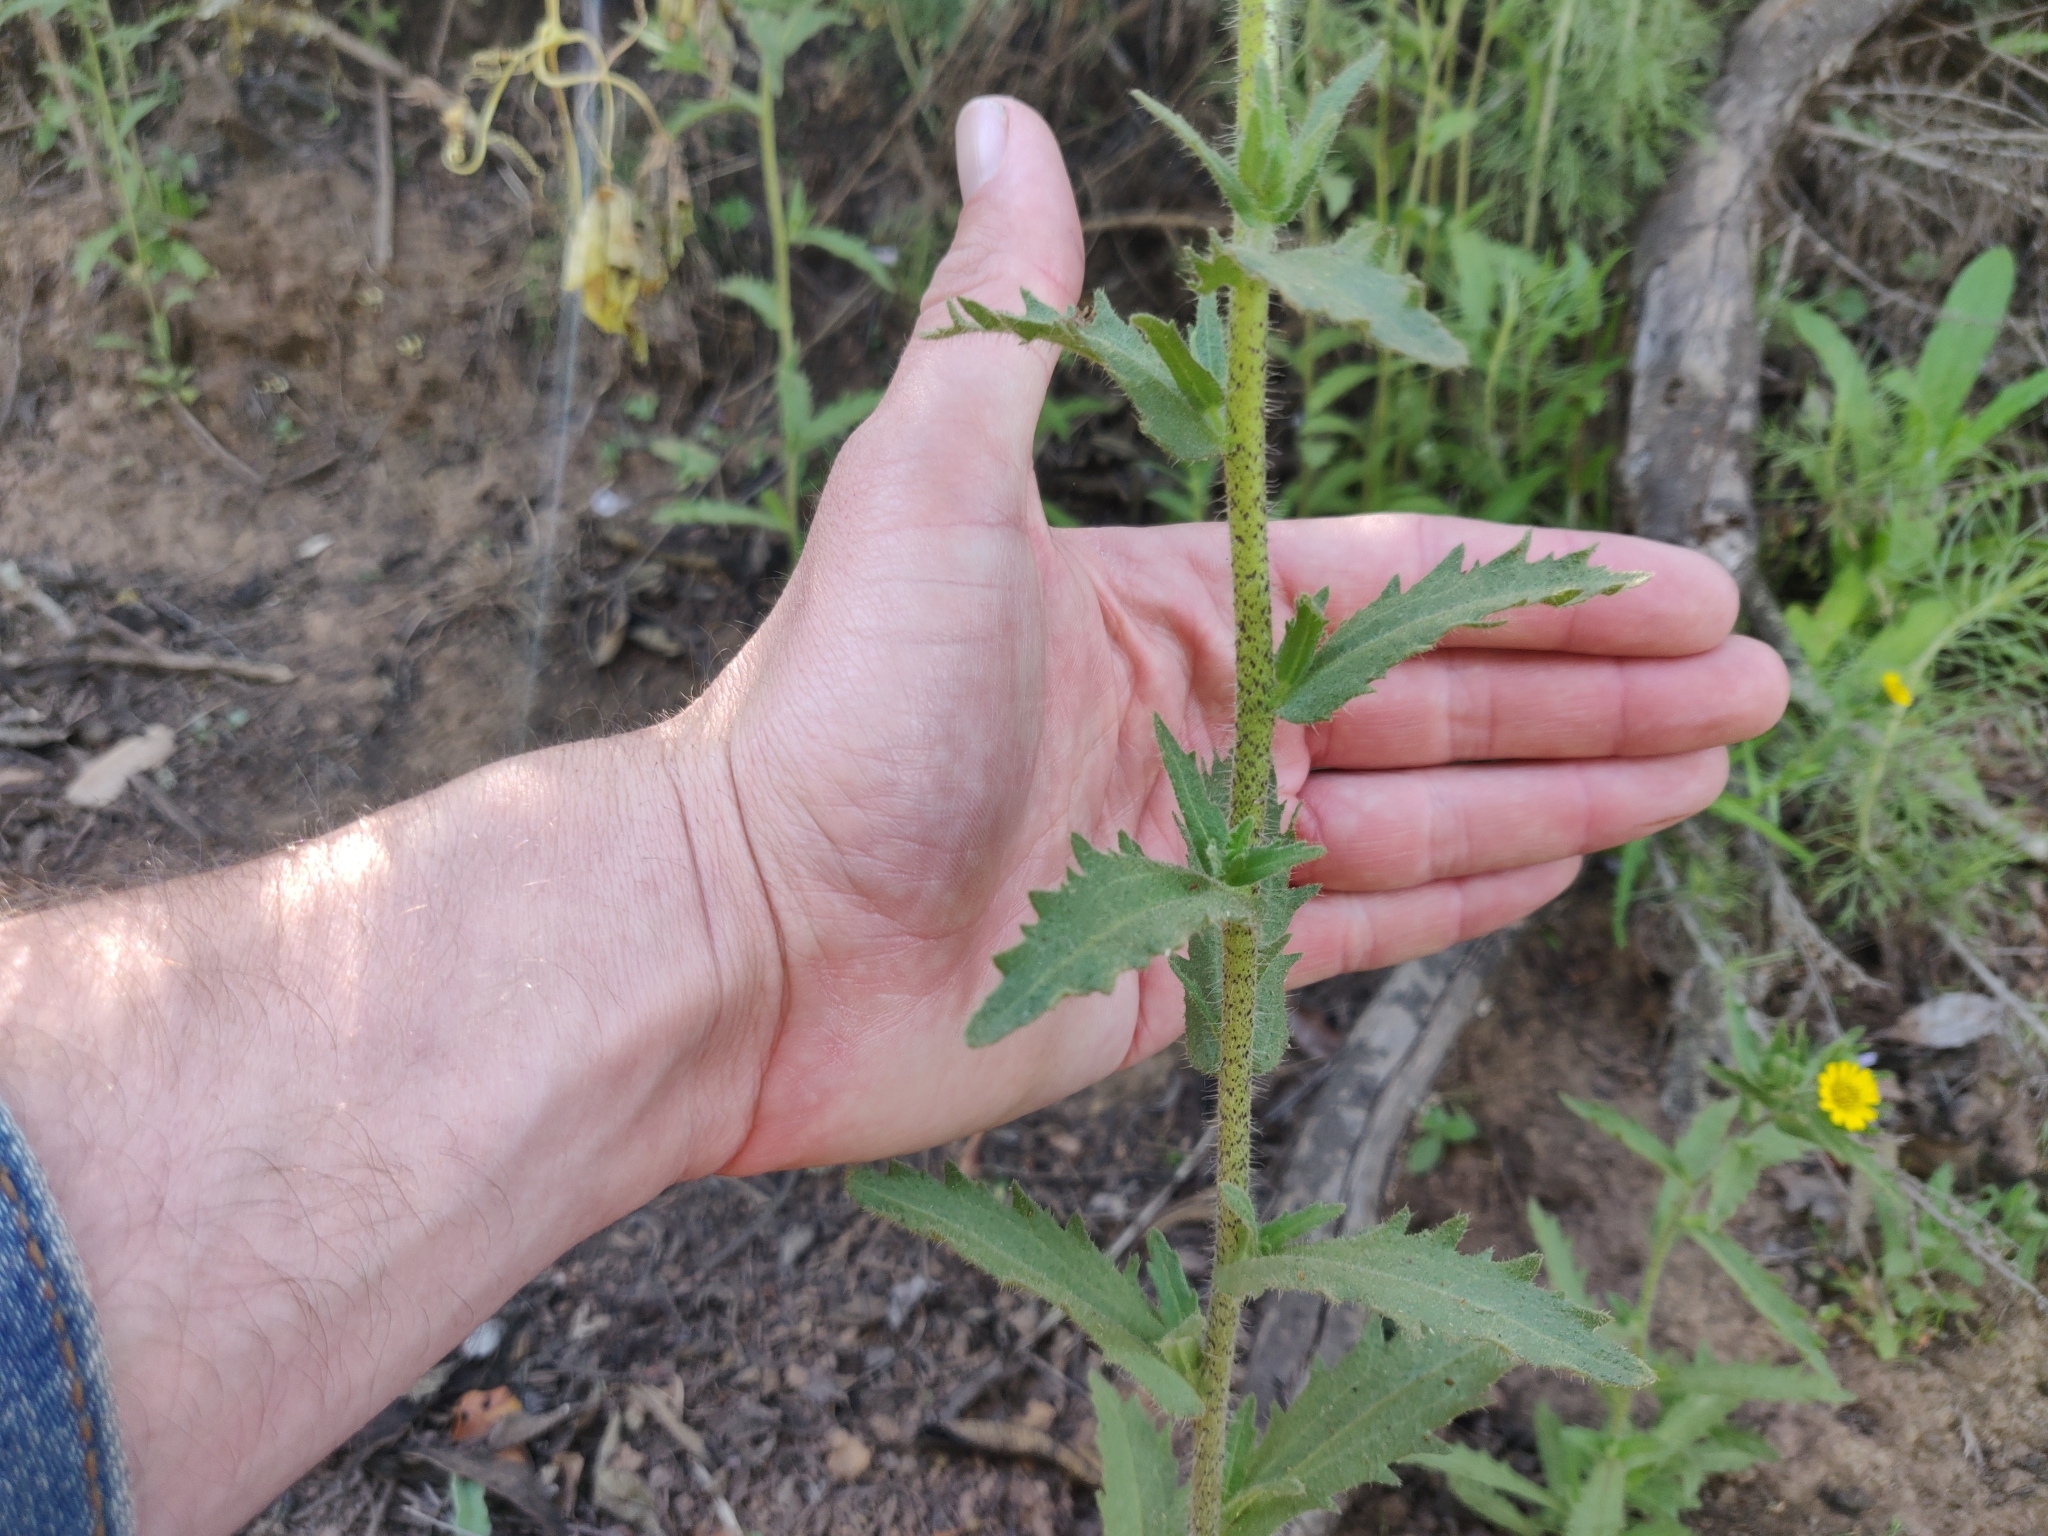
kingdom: Plantae
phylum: Tracheophyta
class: Magnoliopsida
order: Asterales
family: Asteraceae
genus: Layia
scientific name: Layia hieracioides
